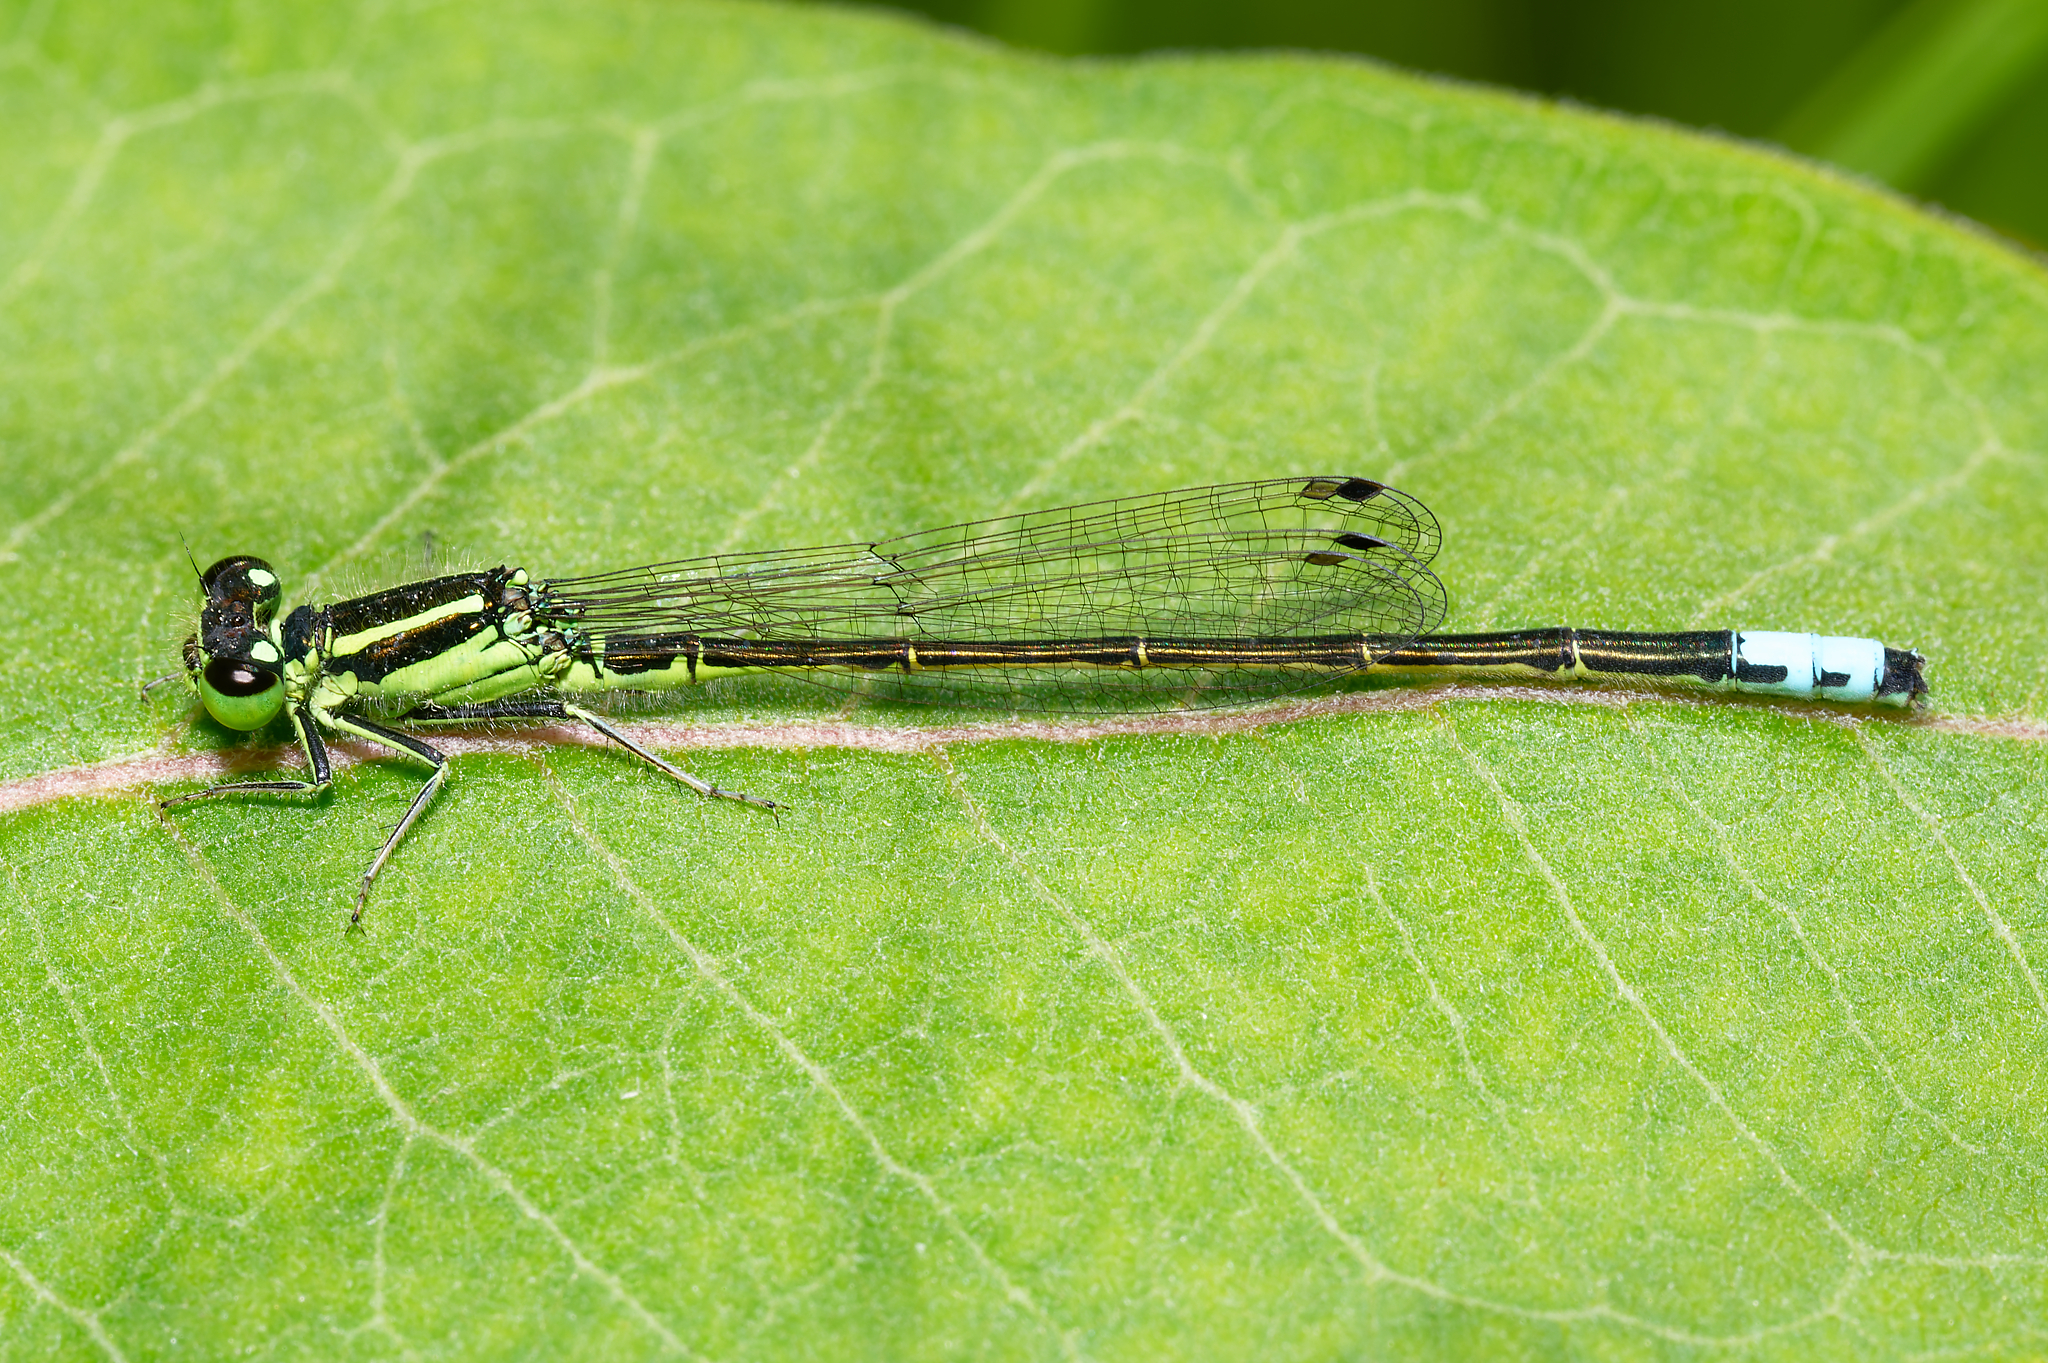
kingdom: Animalia
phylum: Arthropoda
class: Insecta
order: Odonata
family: Coenagrionidae
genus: Ischnura
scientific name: Ischnura verticalis
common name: Eastern forktail
